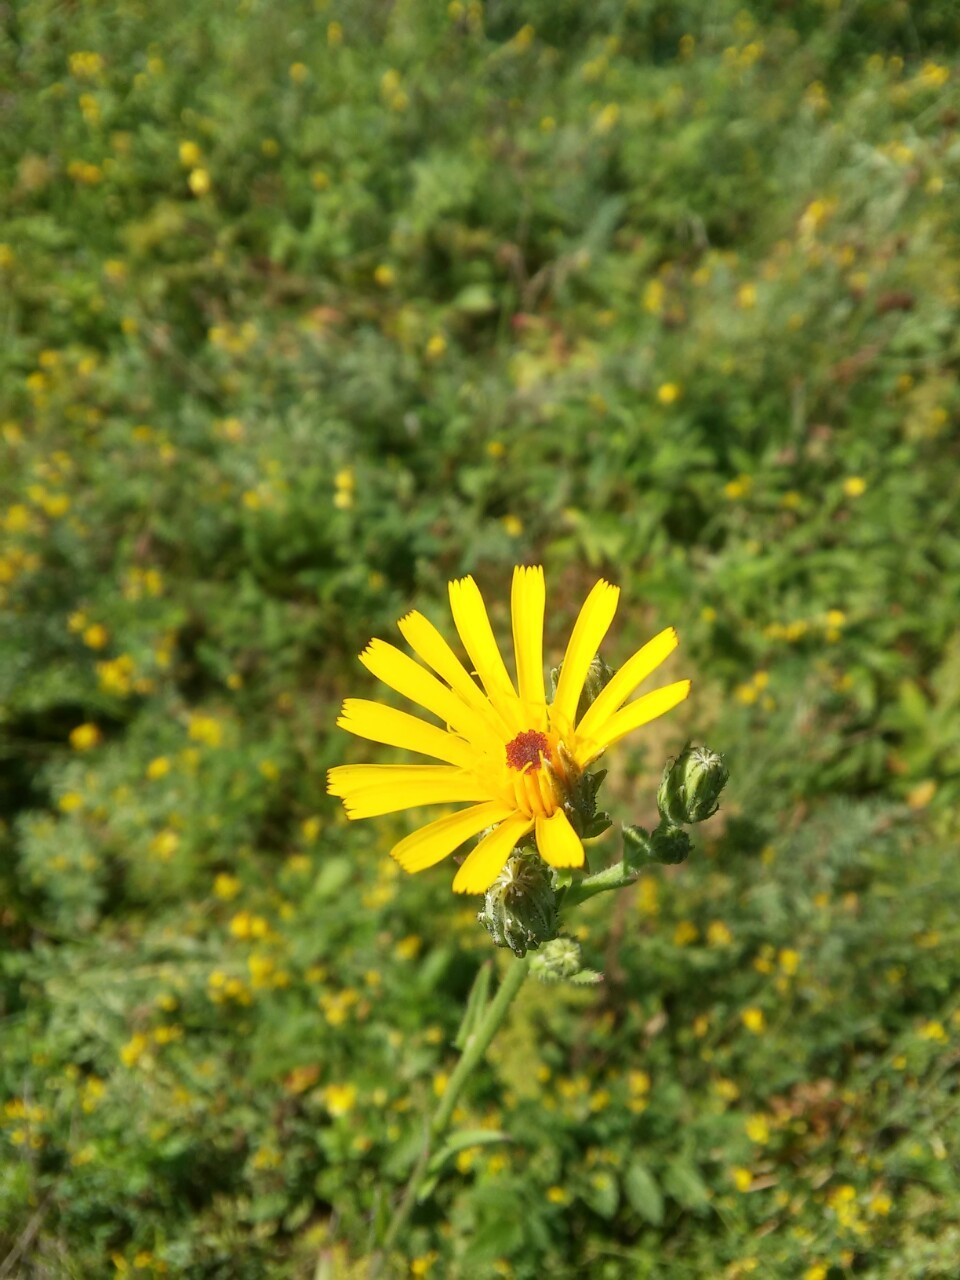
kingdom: Plantae
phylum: Tracheophyta
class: Magnoliopsida
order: Asterales
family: Asteraceae
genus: Picris
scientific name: Picris hieracioides
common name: Hawkweed oxtongue
